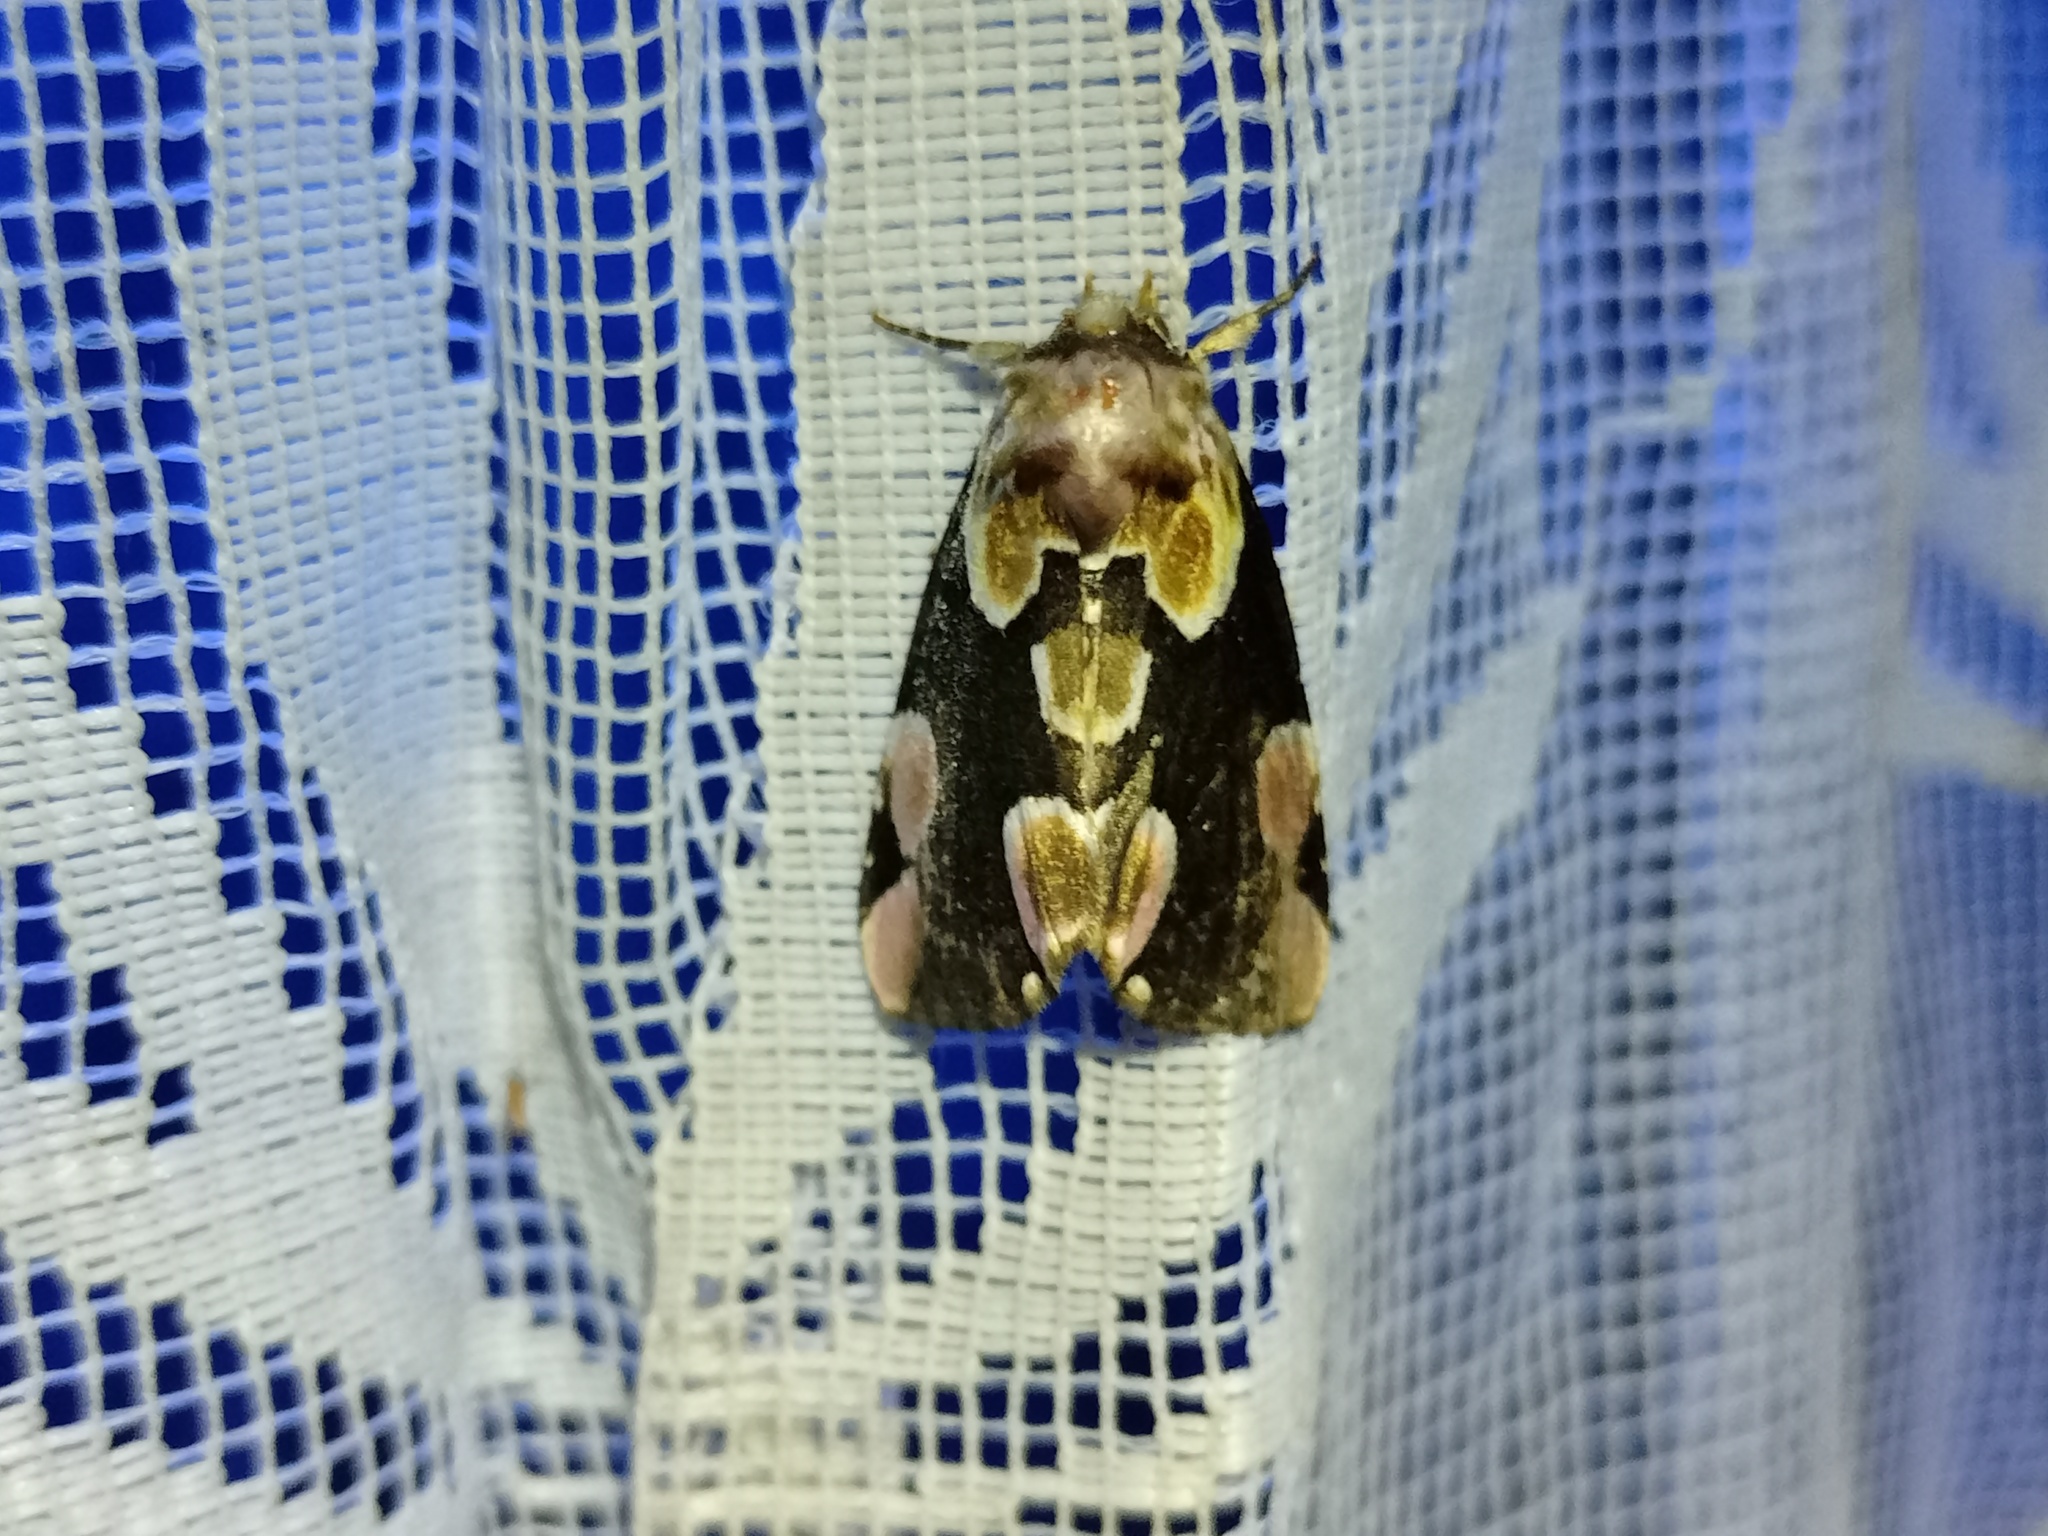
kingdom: Animalia
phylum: Arthropoda
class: Insecta
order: Lepidoptera
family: Drepanidae
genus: Thyatira
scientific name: Thyatira batis
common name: Peach blossom
